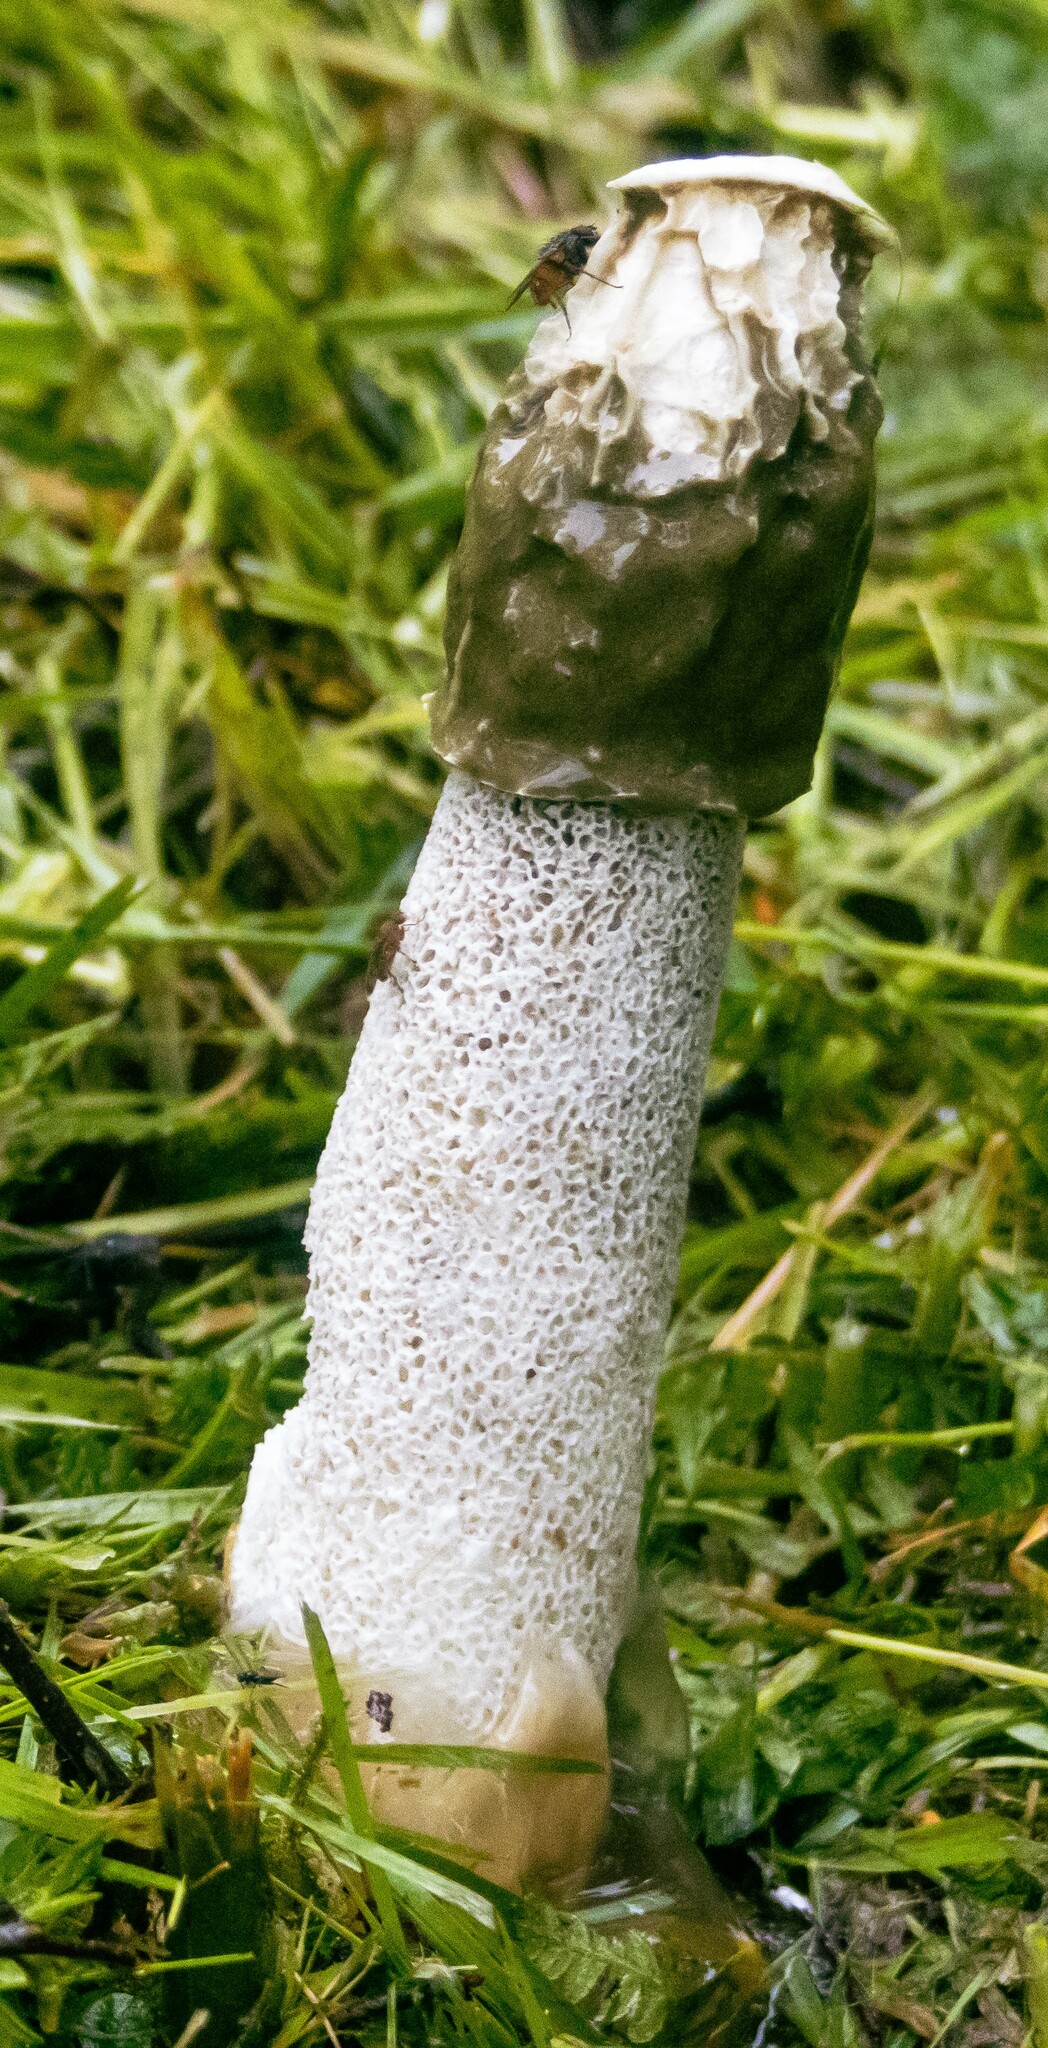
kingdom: Fungi
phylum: Basidiomycota
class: Agaricomycetes
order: Phallales
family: Phallaceae
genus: Phallus
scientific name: Phallus impudicus
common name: Common stinkhorn
